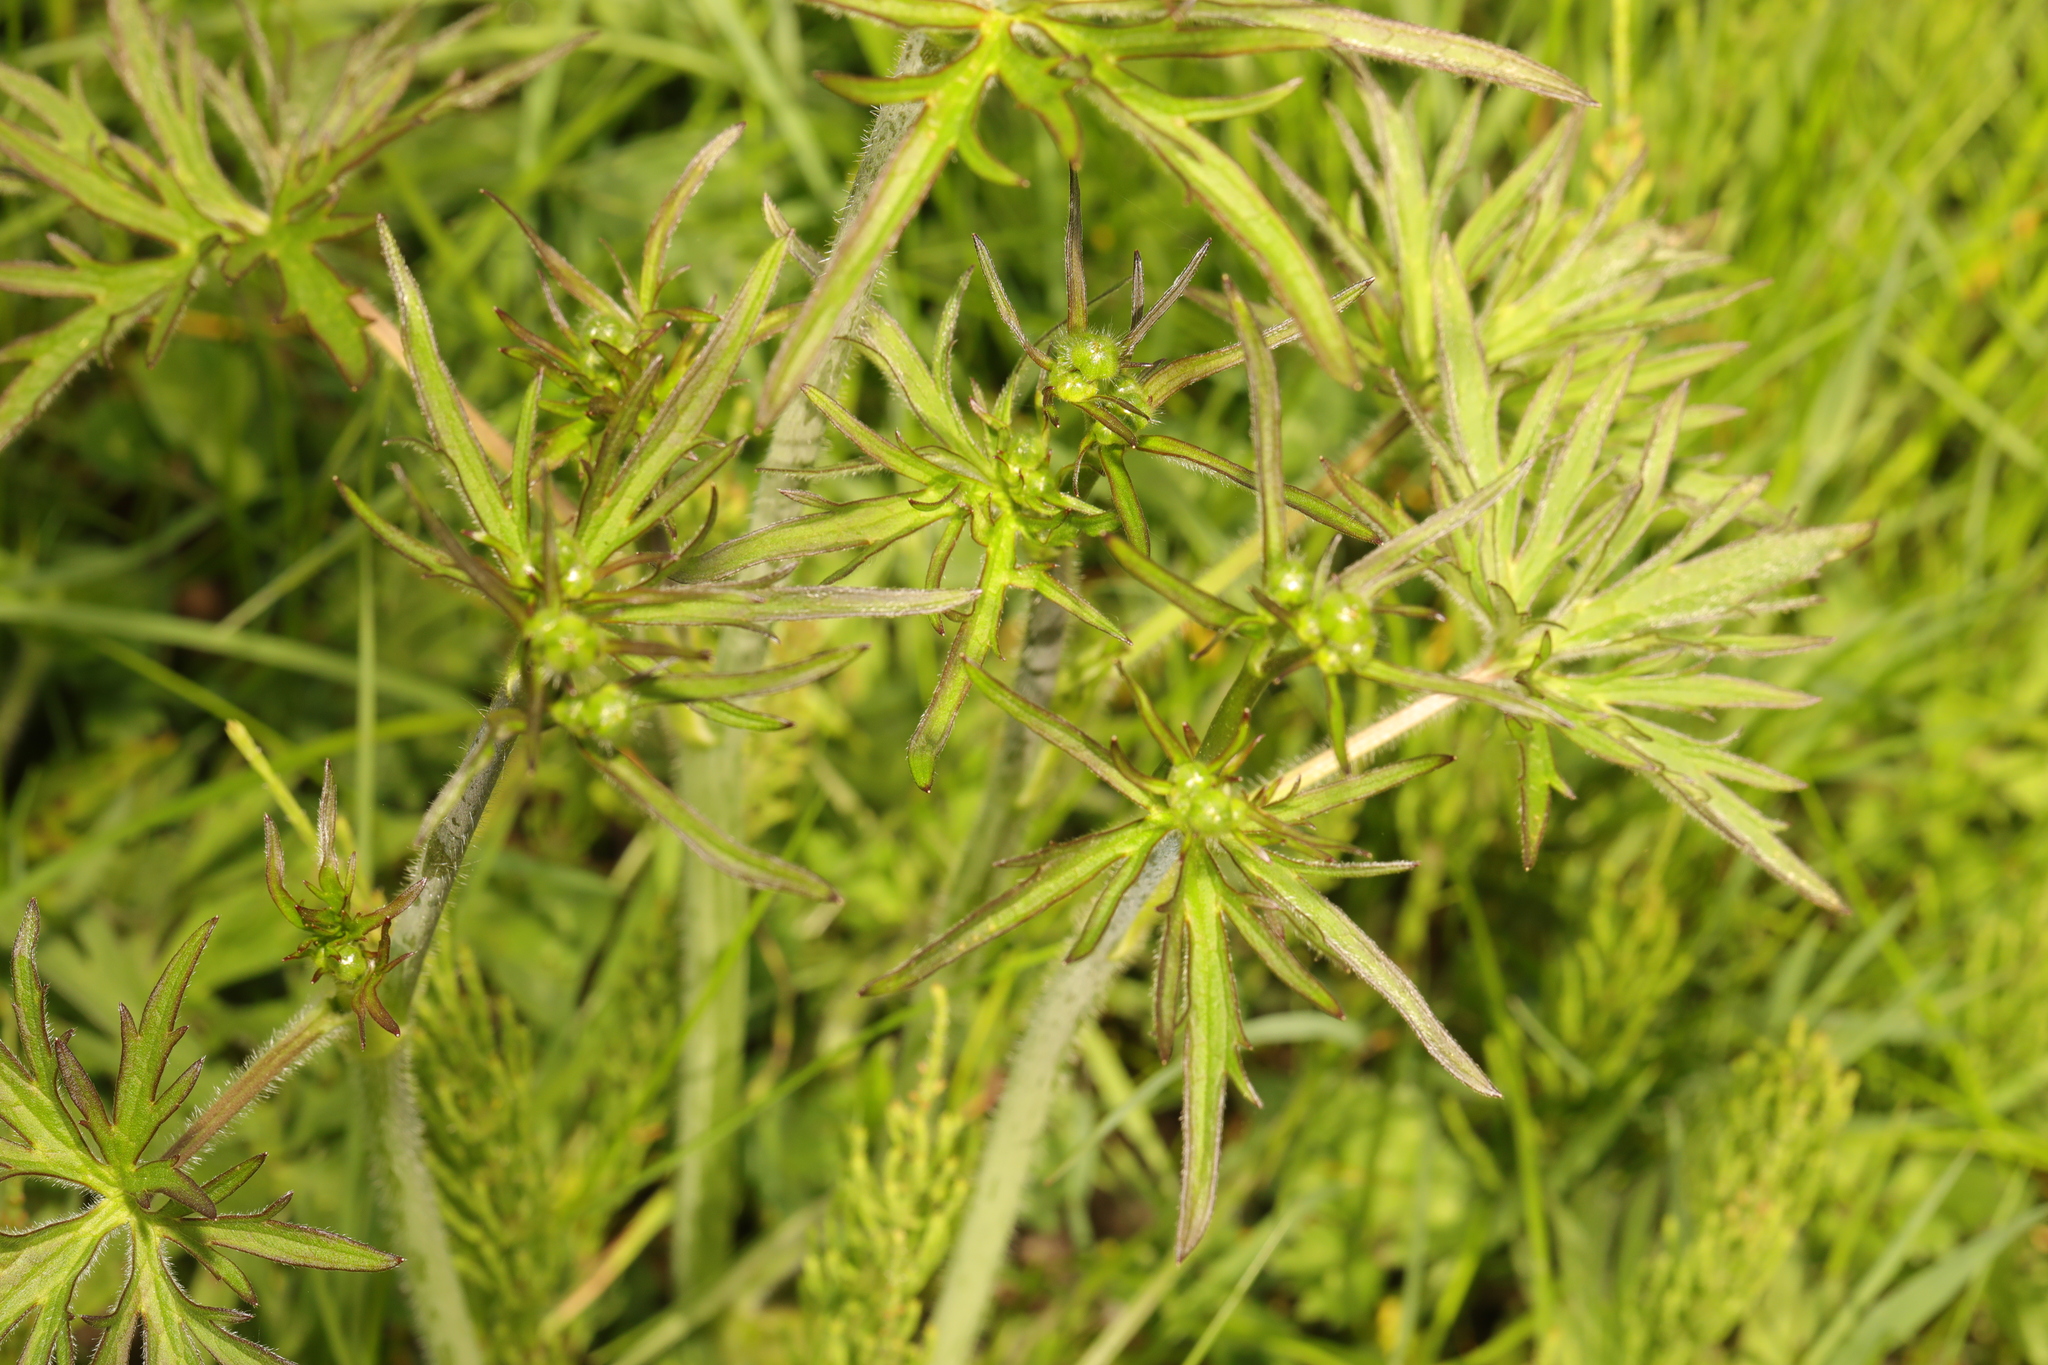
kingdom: Plantae
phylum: Tracheophyta
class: Magnoliopsida
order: Ranunculales
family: Ranunculaceae
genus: Ranunculus
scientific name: Ranunculus acris
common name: Meadow buttercup
